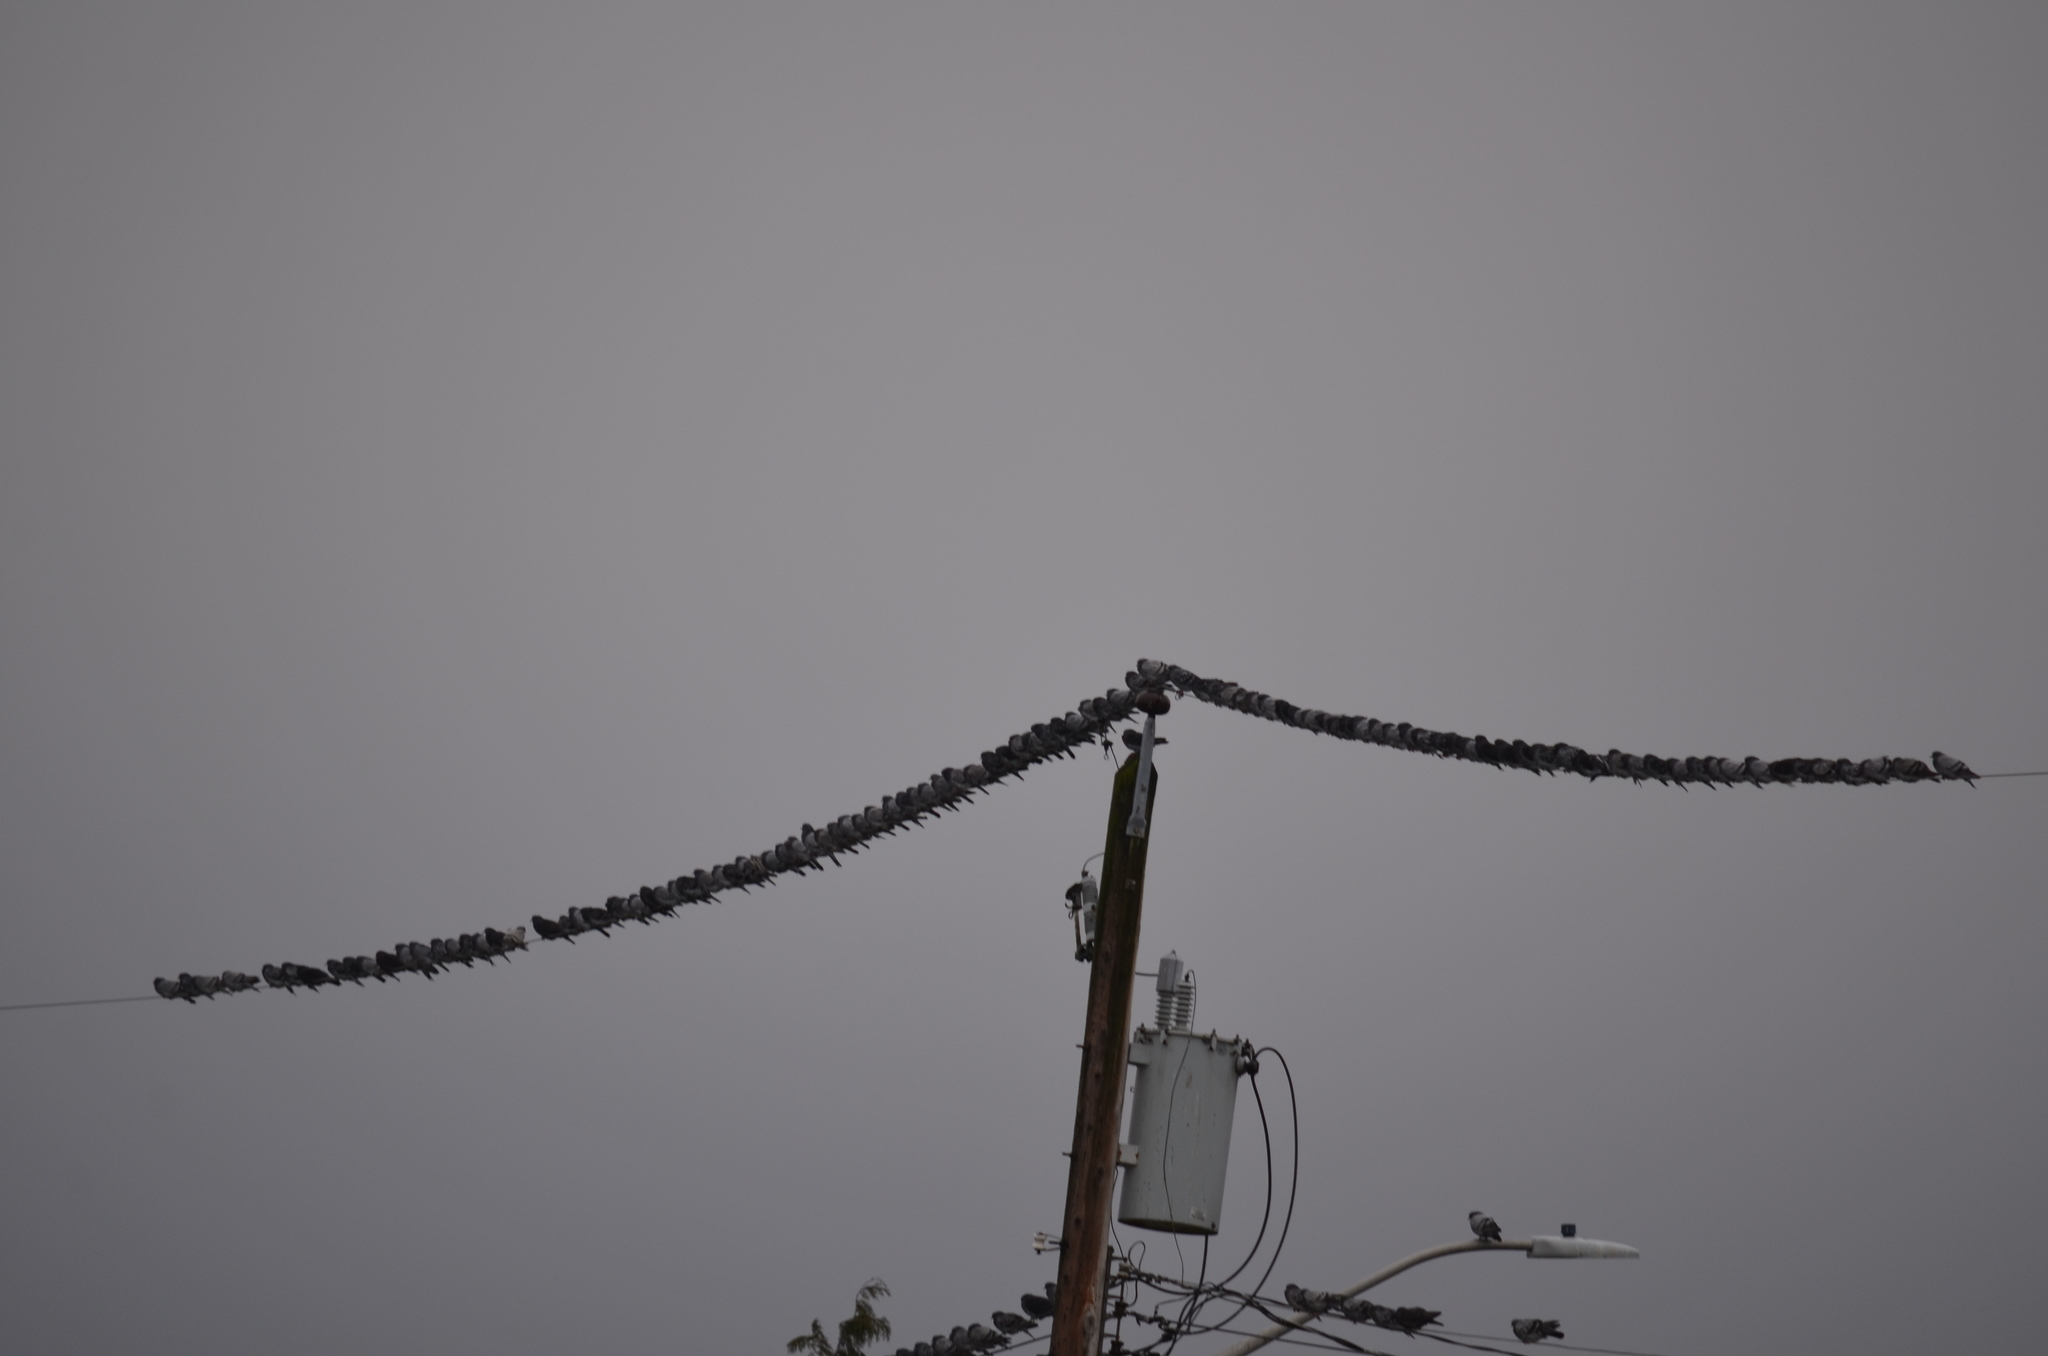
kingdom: Animalia
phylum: Chordata
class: Aves
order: Columbiformes
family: Columbidae
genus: Columba
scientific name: Columba livia
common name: Rock pigeon
